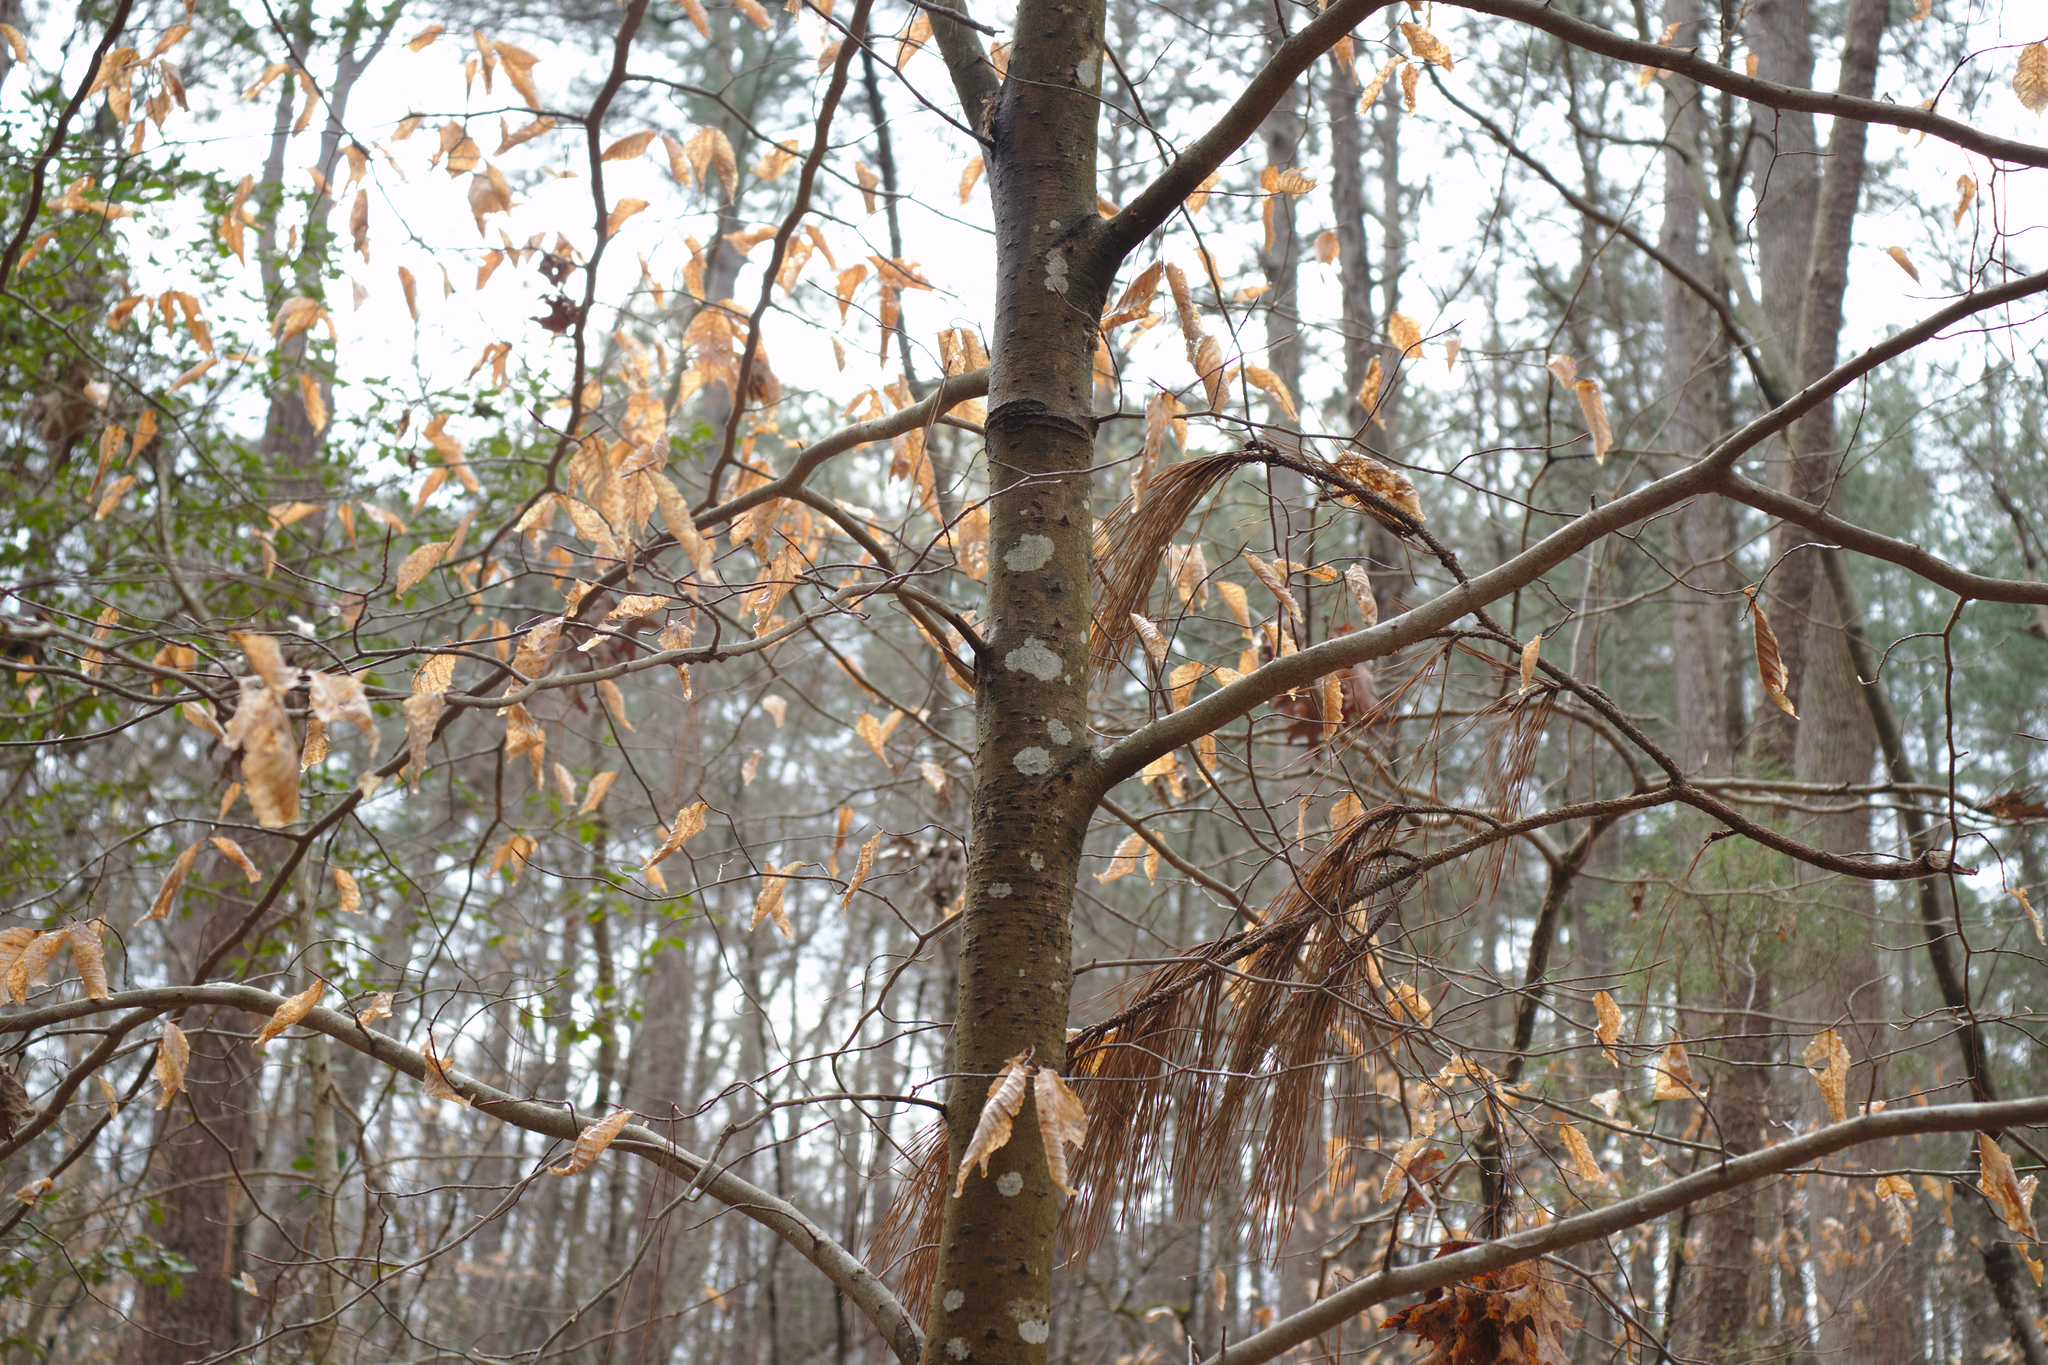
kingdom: Plantae
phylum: Tracheophyta
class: Magnoliopsida
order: Fagales
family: Fagaceae
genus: Fagus
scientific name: Fagus grandifolia
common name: American beech
